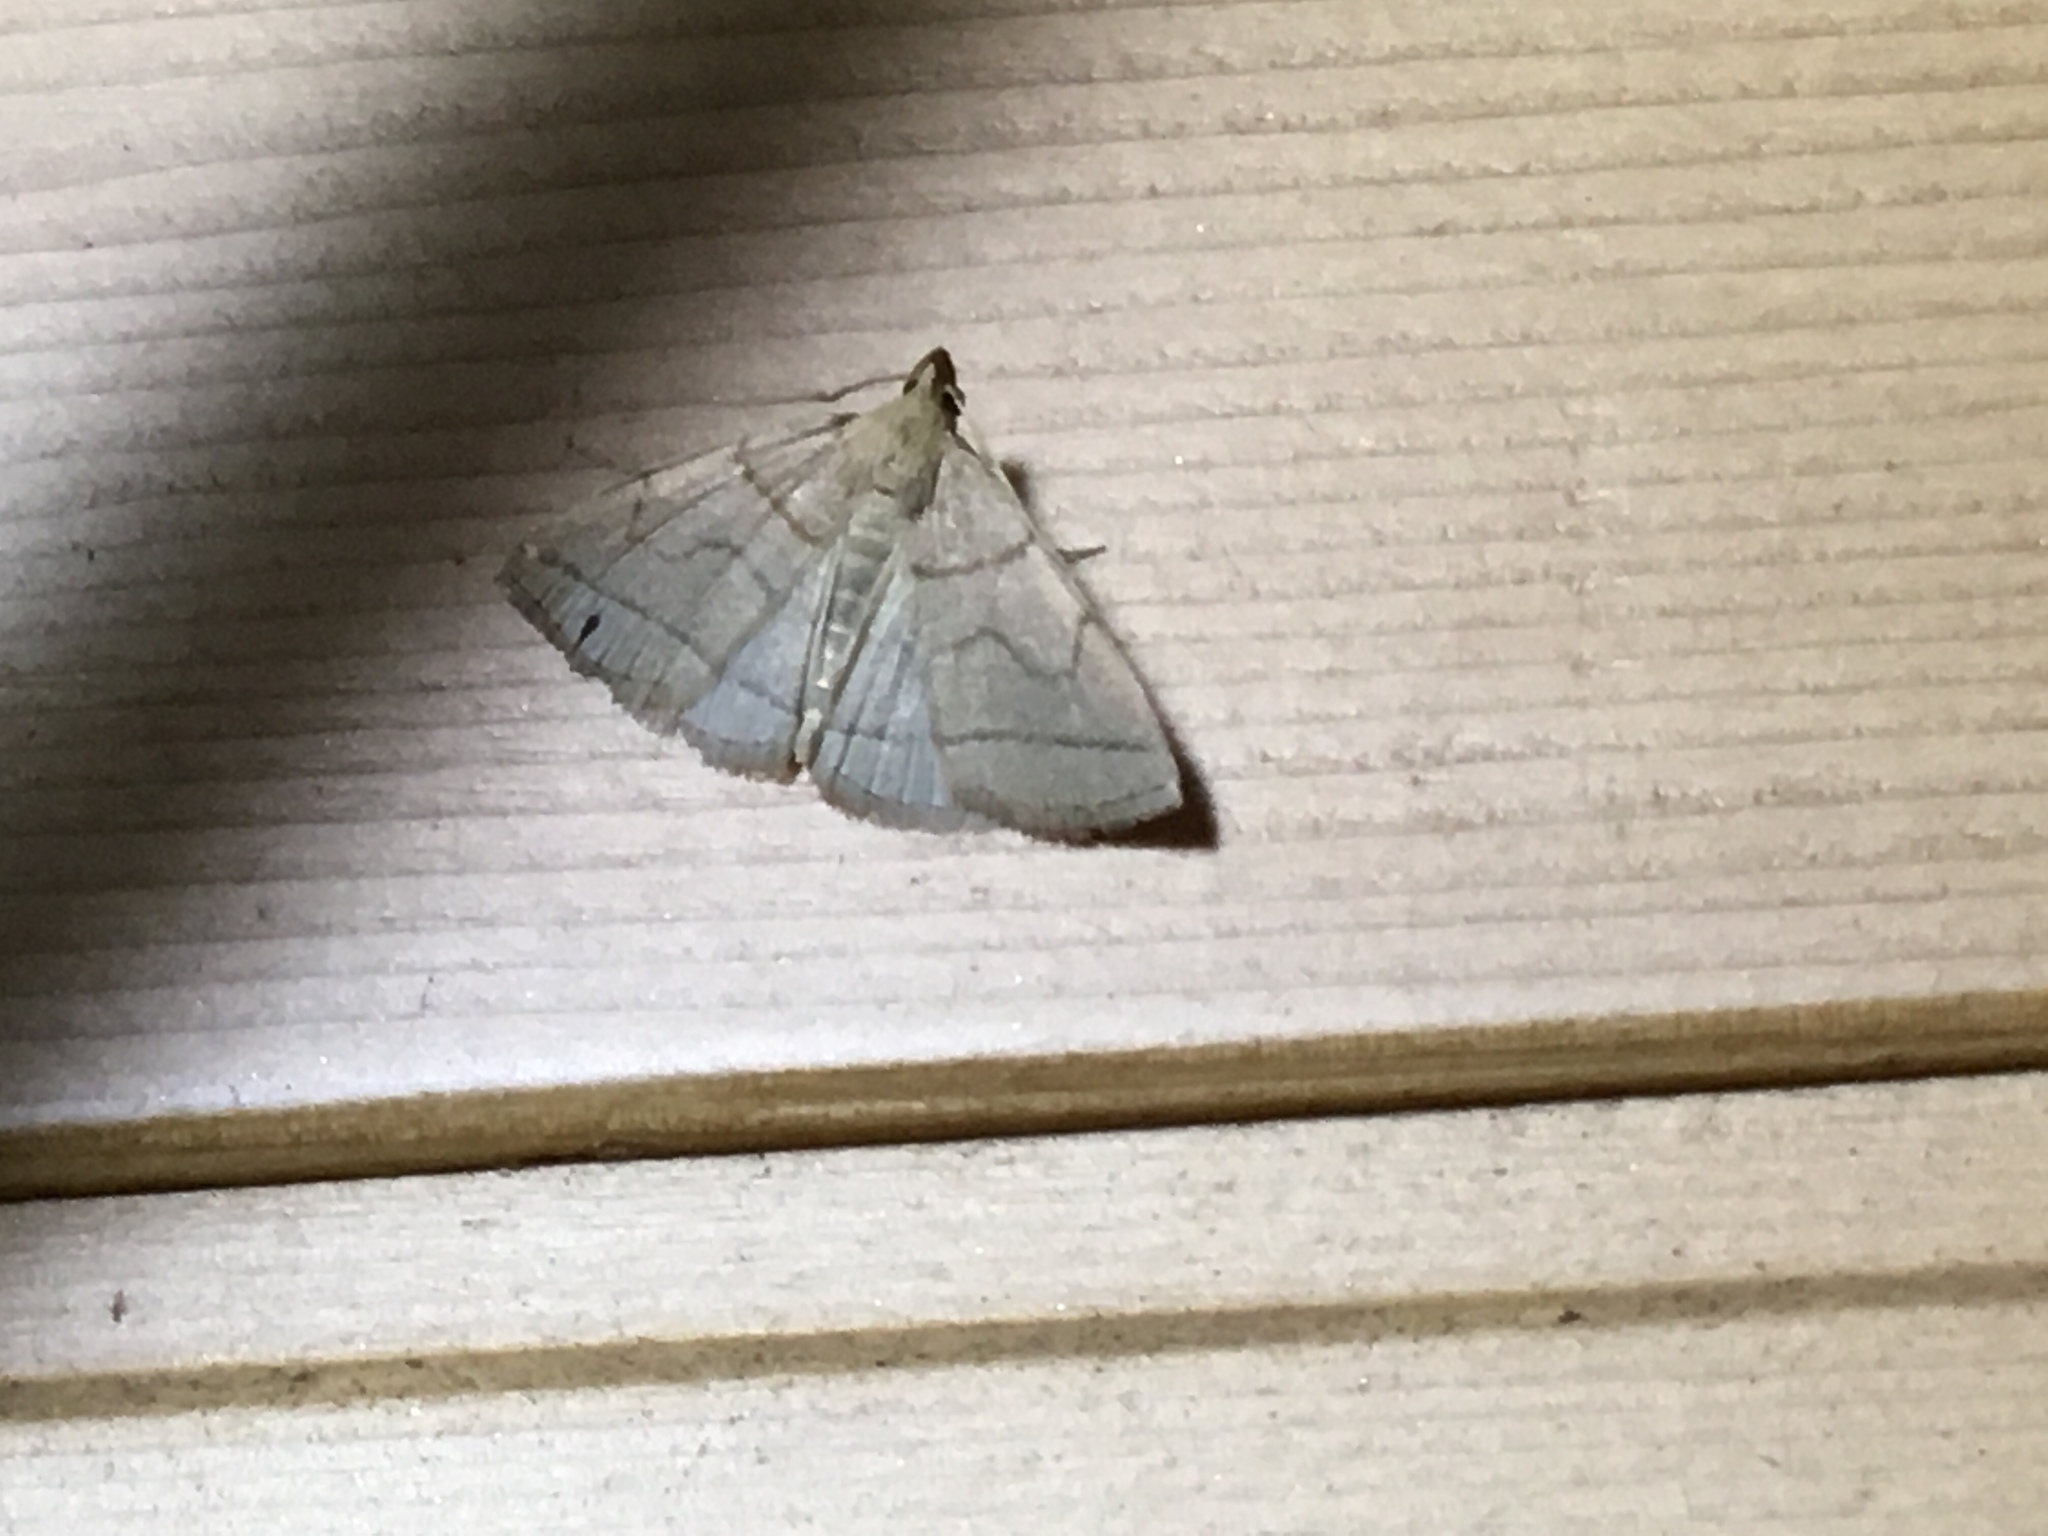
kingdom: Animalia
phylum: Arthropoda
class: Insecta
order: Lepidoptera
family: Erebidae
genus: Zanclognatha
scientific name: Zanclognatha cruralis
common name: Early fan-foot
